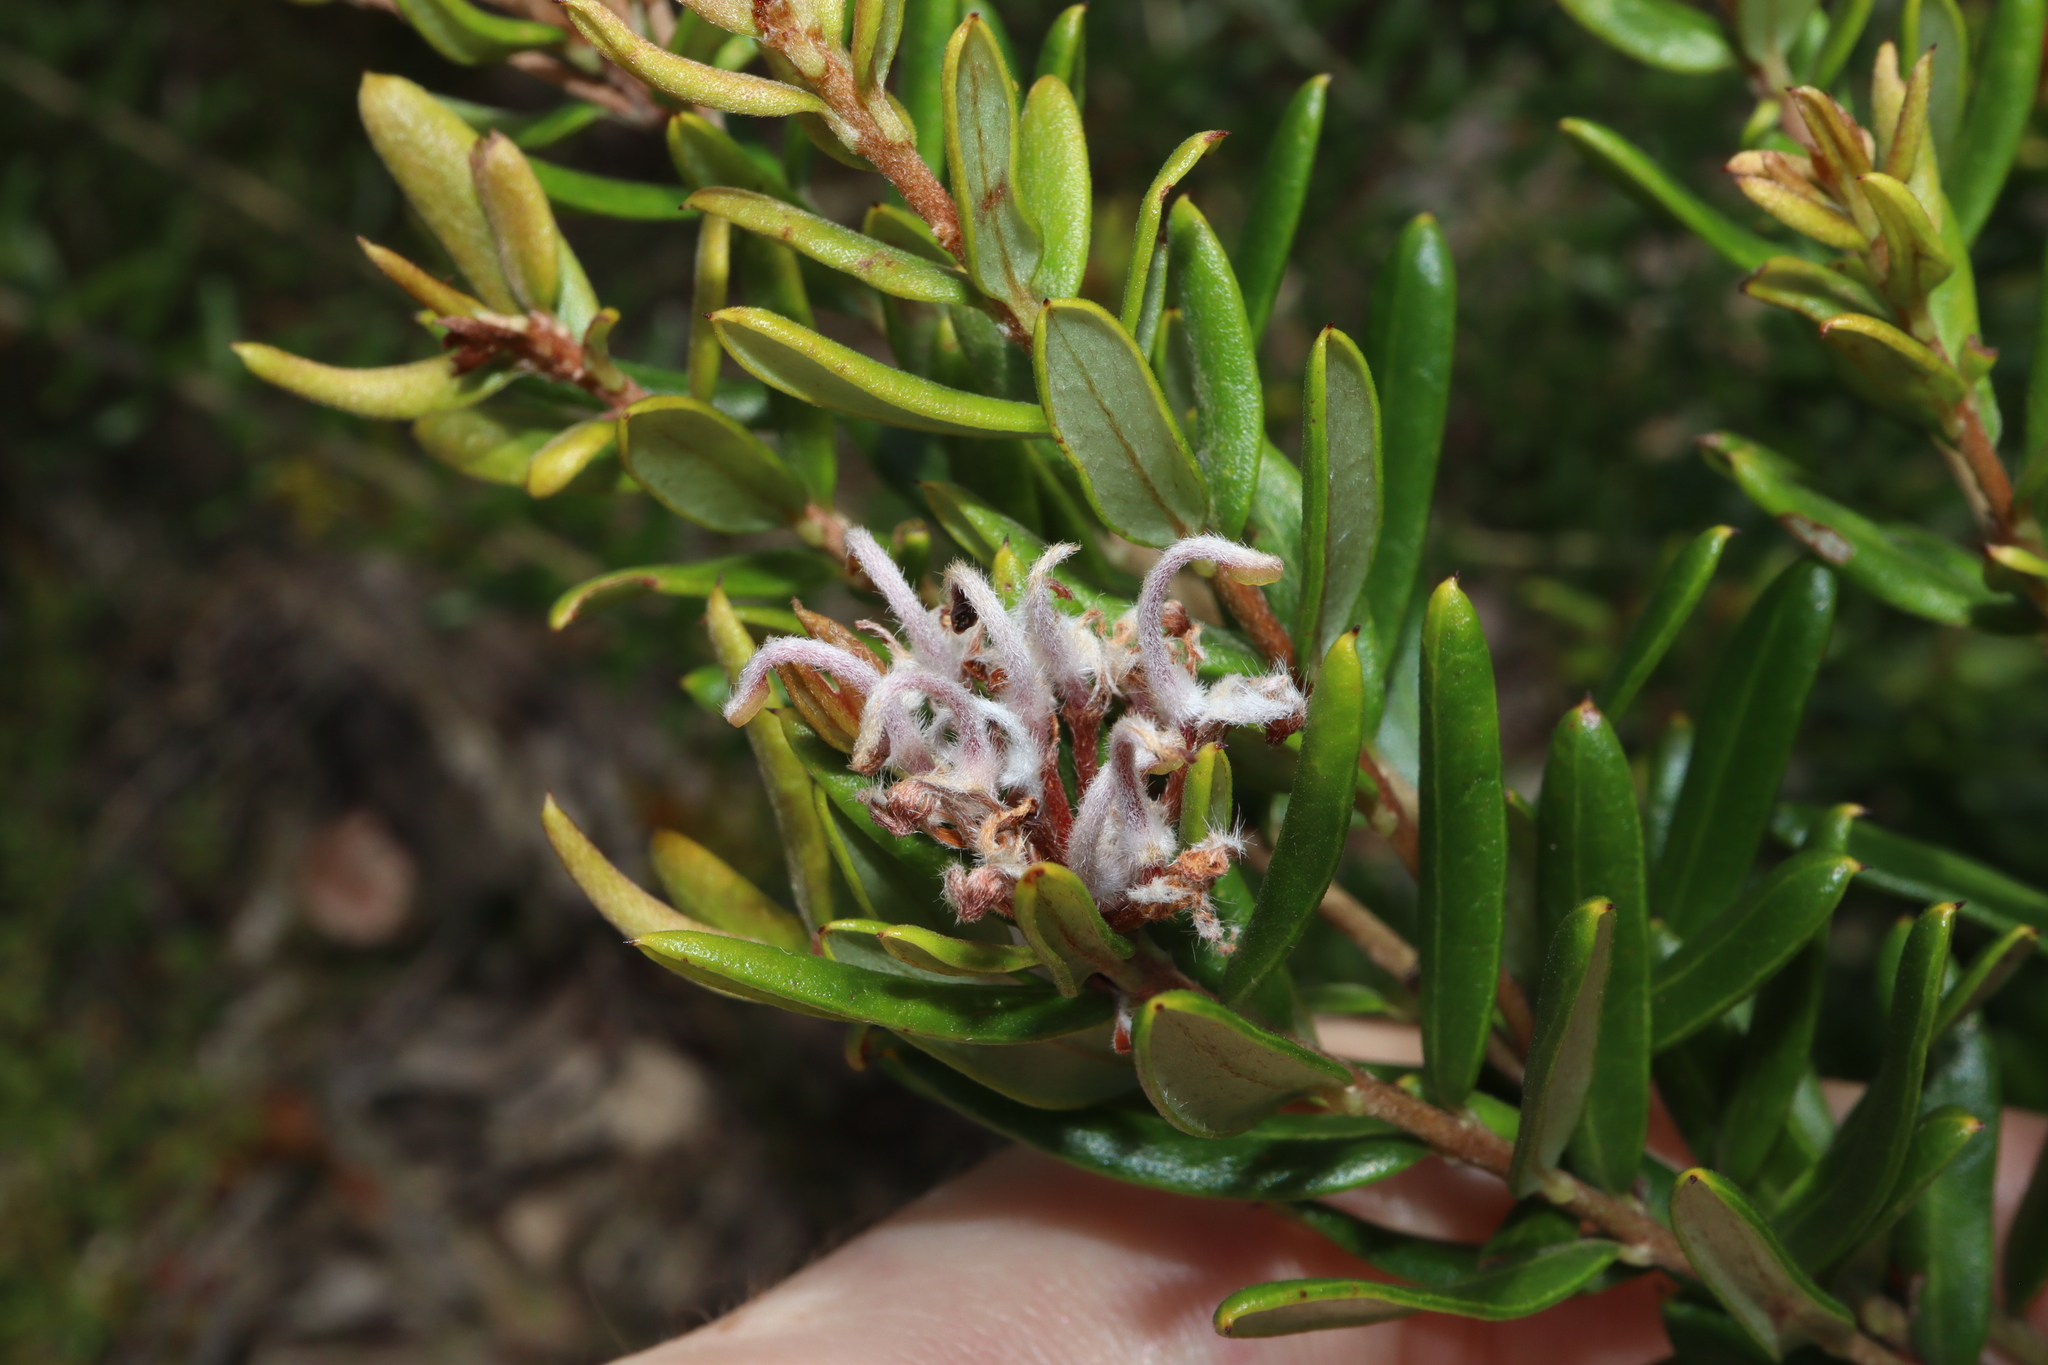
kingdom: Plantae
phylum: Tracheophyta
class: Magnoliopsida
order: Proteales
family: Proteaceae
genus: Grevillea
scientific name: Grevillea sphacelata
